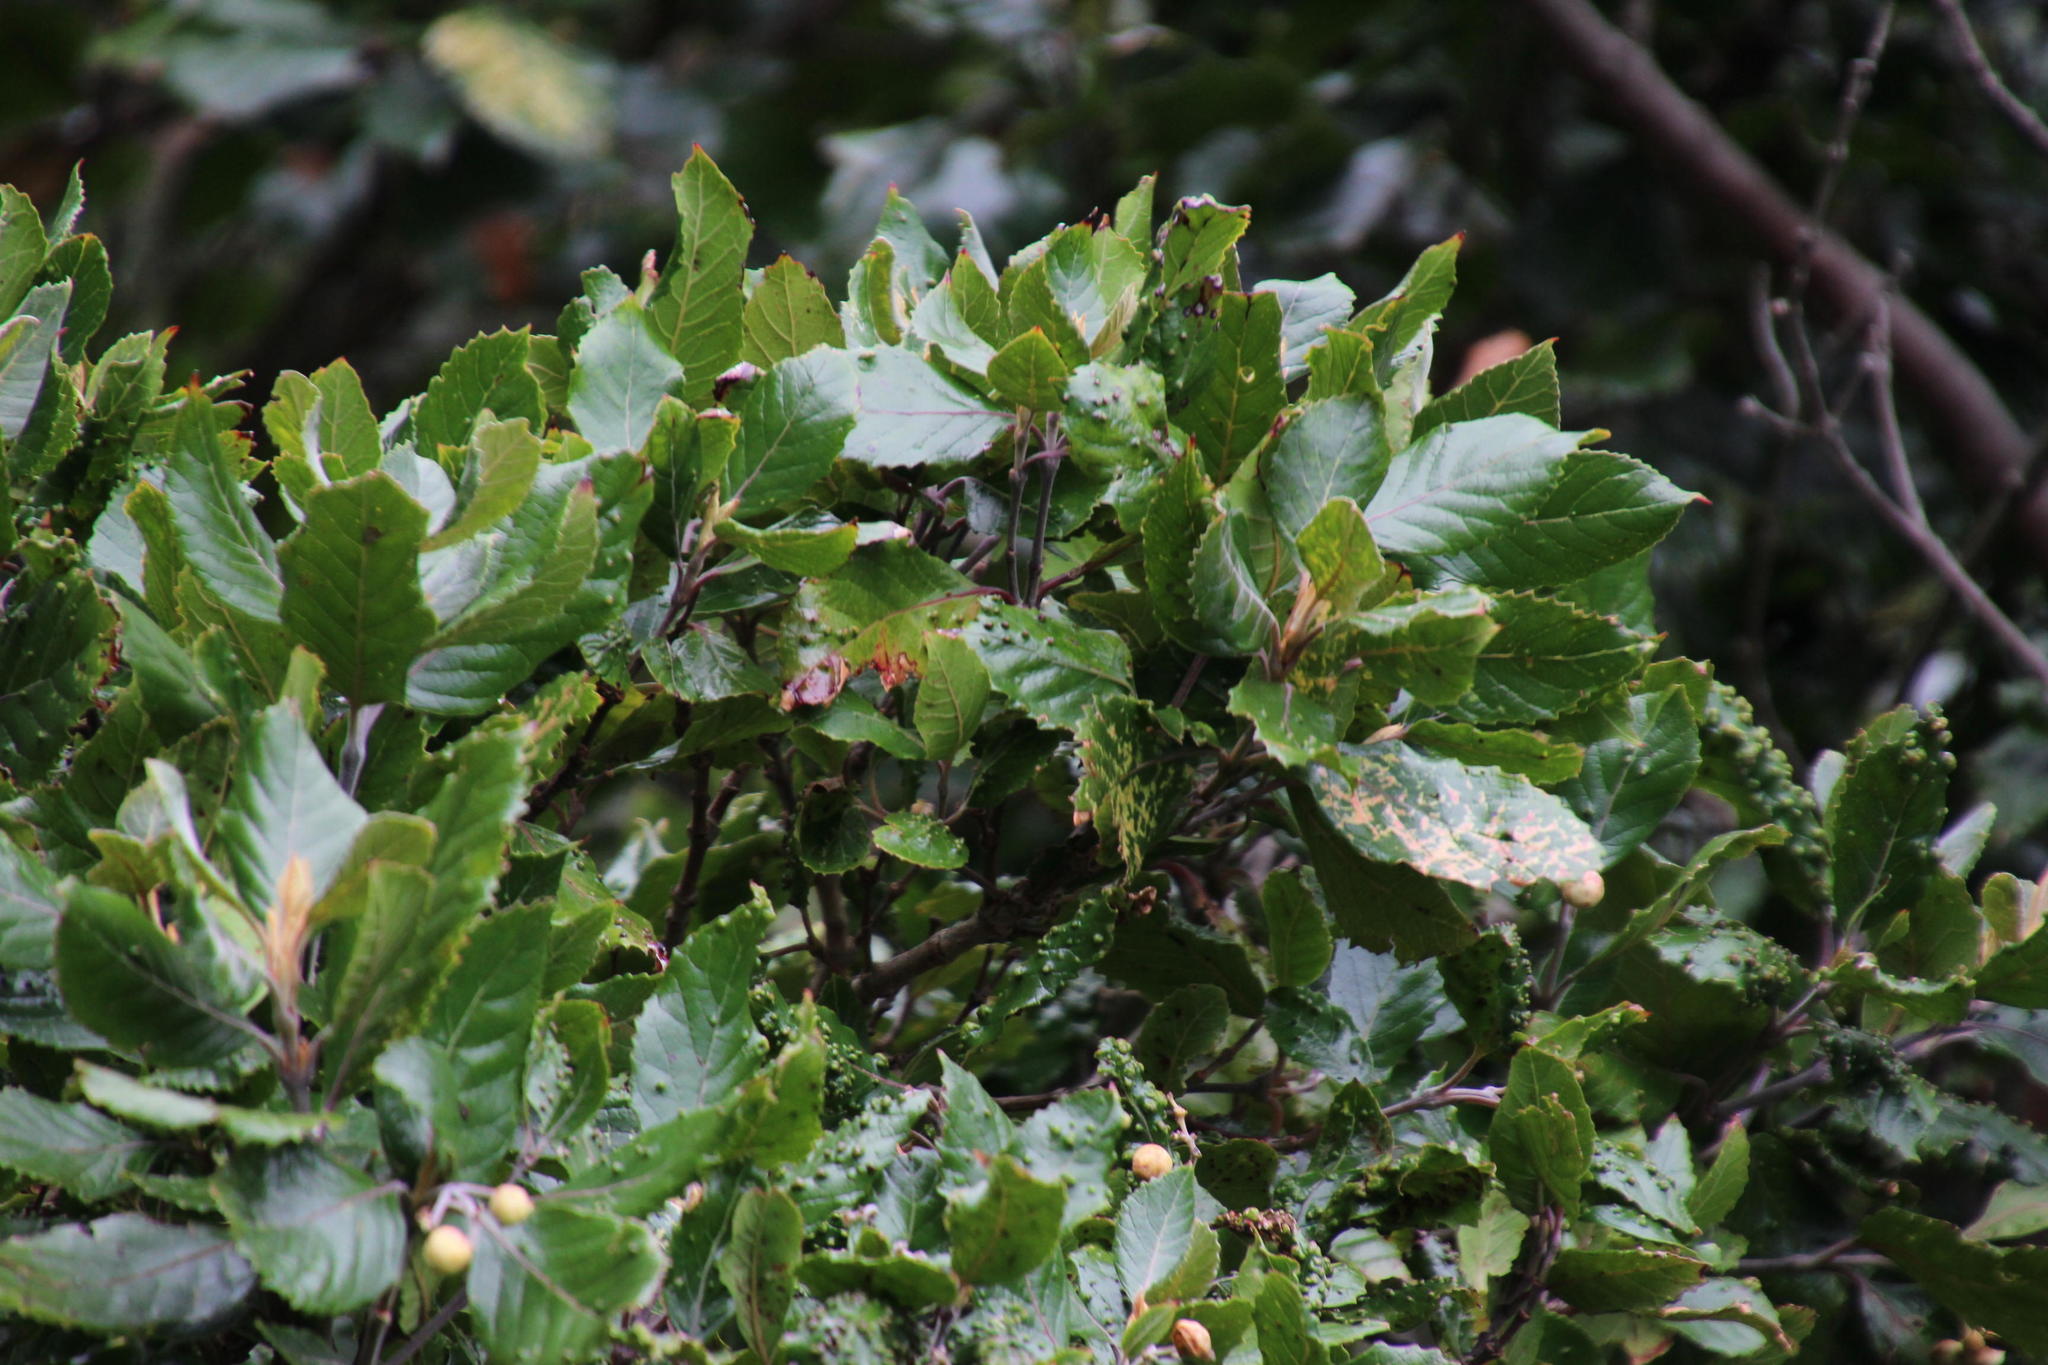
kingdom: Plantae
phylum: Tracheophyta
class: Magnoliopsida
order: Cornales
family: Curtisiaceae
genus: Curtisia
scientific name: Curtisia dentata
